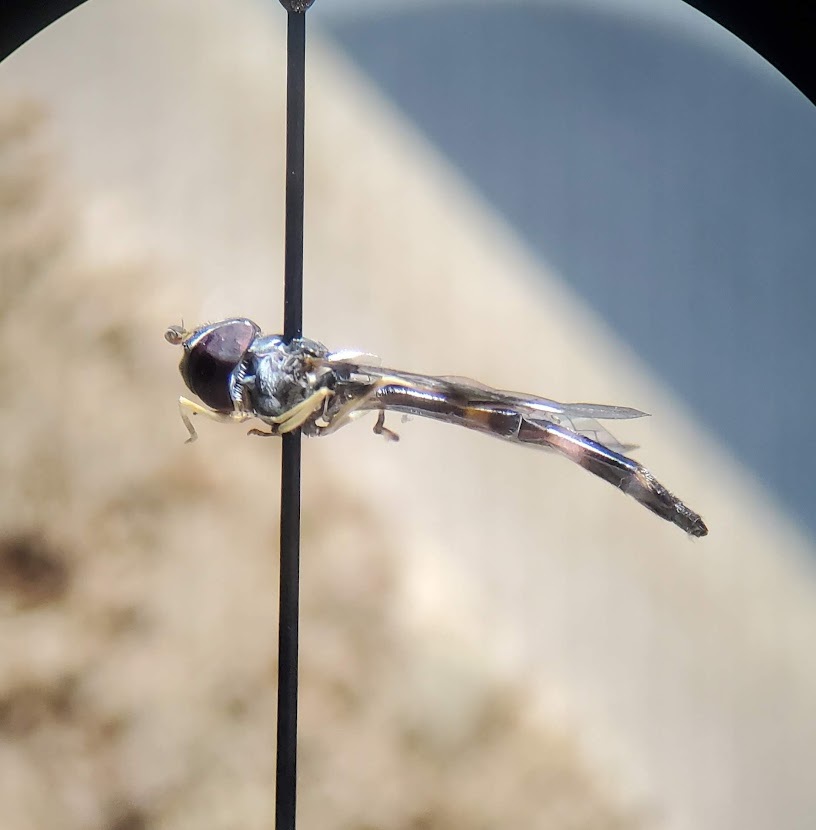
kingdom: Animalia
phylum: Arthropoda
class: Insecta
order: Diptera
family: Syrphidae
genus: Hypocritanus
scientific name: Hypocritanus fascipennis
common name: Eastern band-winged hover fly
